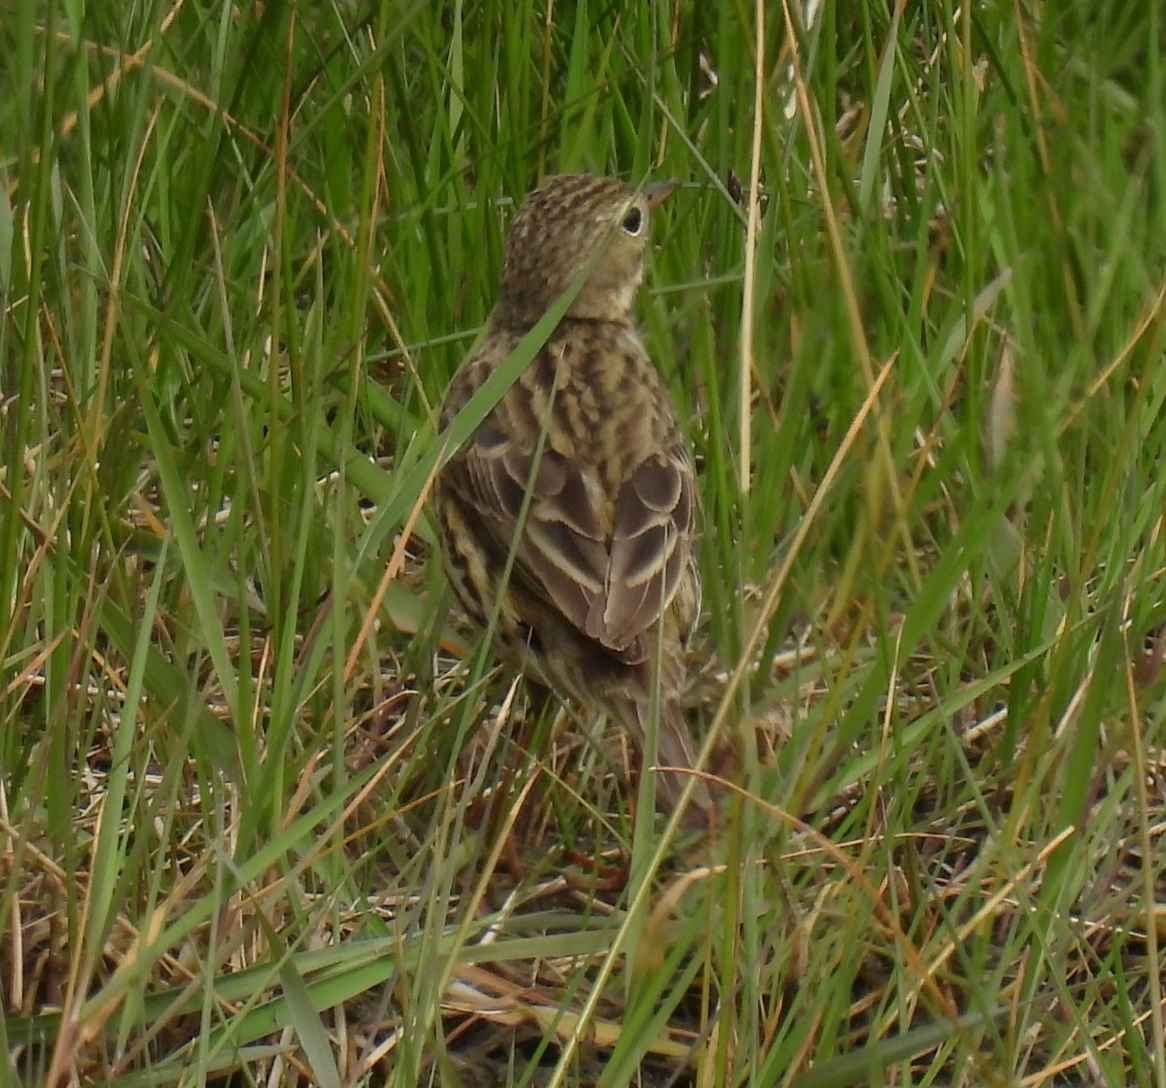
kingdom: Animalia
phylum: Chordata
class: Aves
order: Passeriformes
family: Motacillidae
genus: Anthus
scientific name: Anthus pratensis
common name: Meadow pipit
